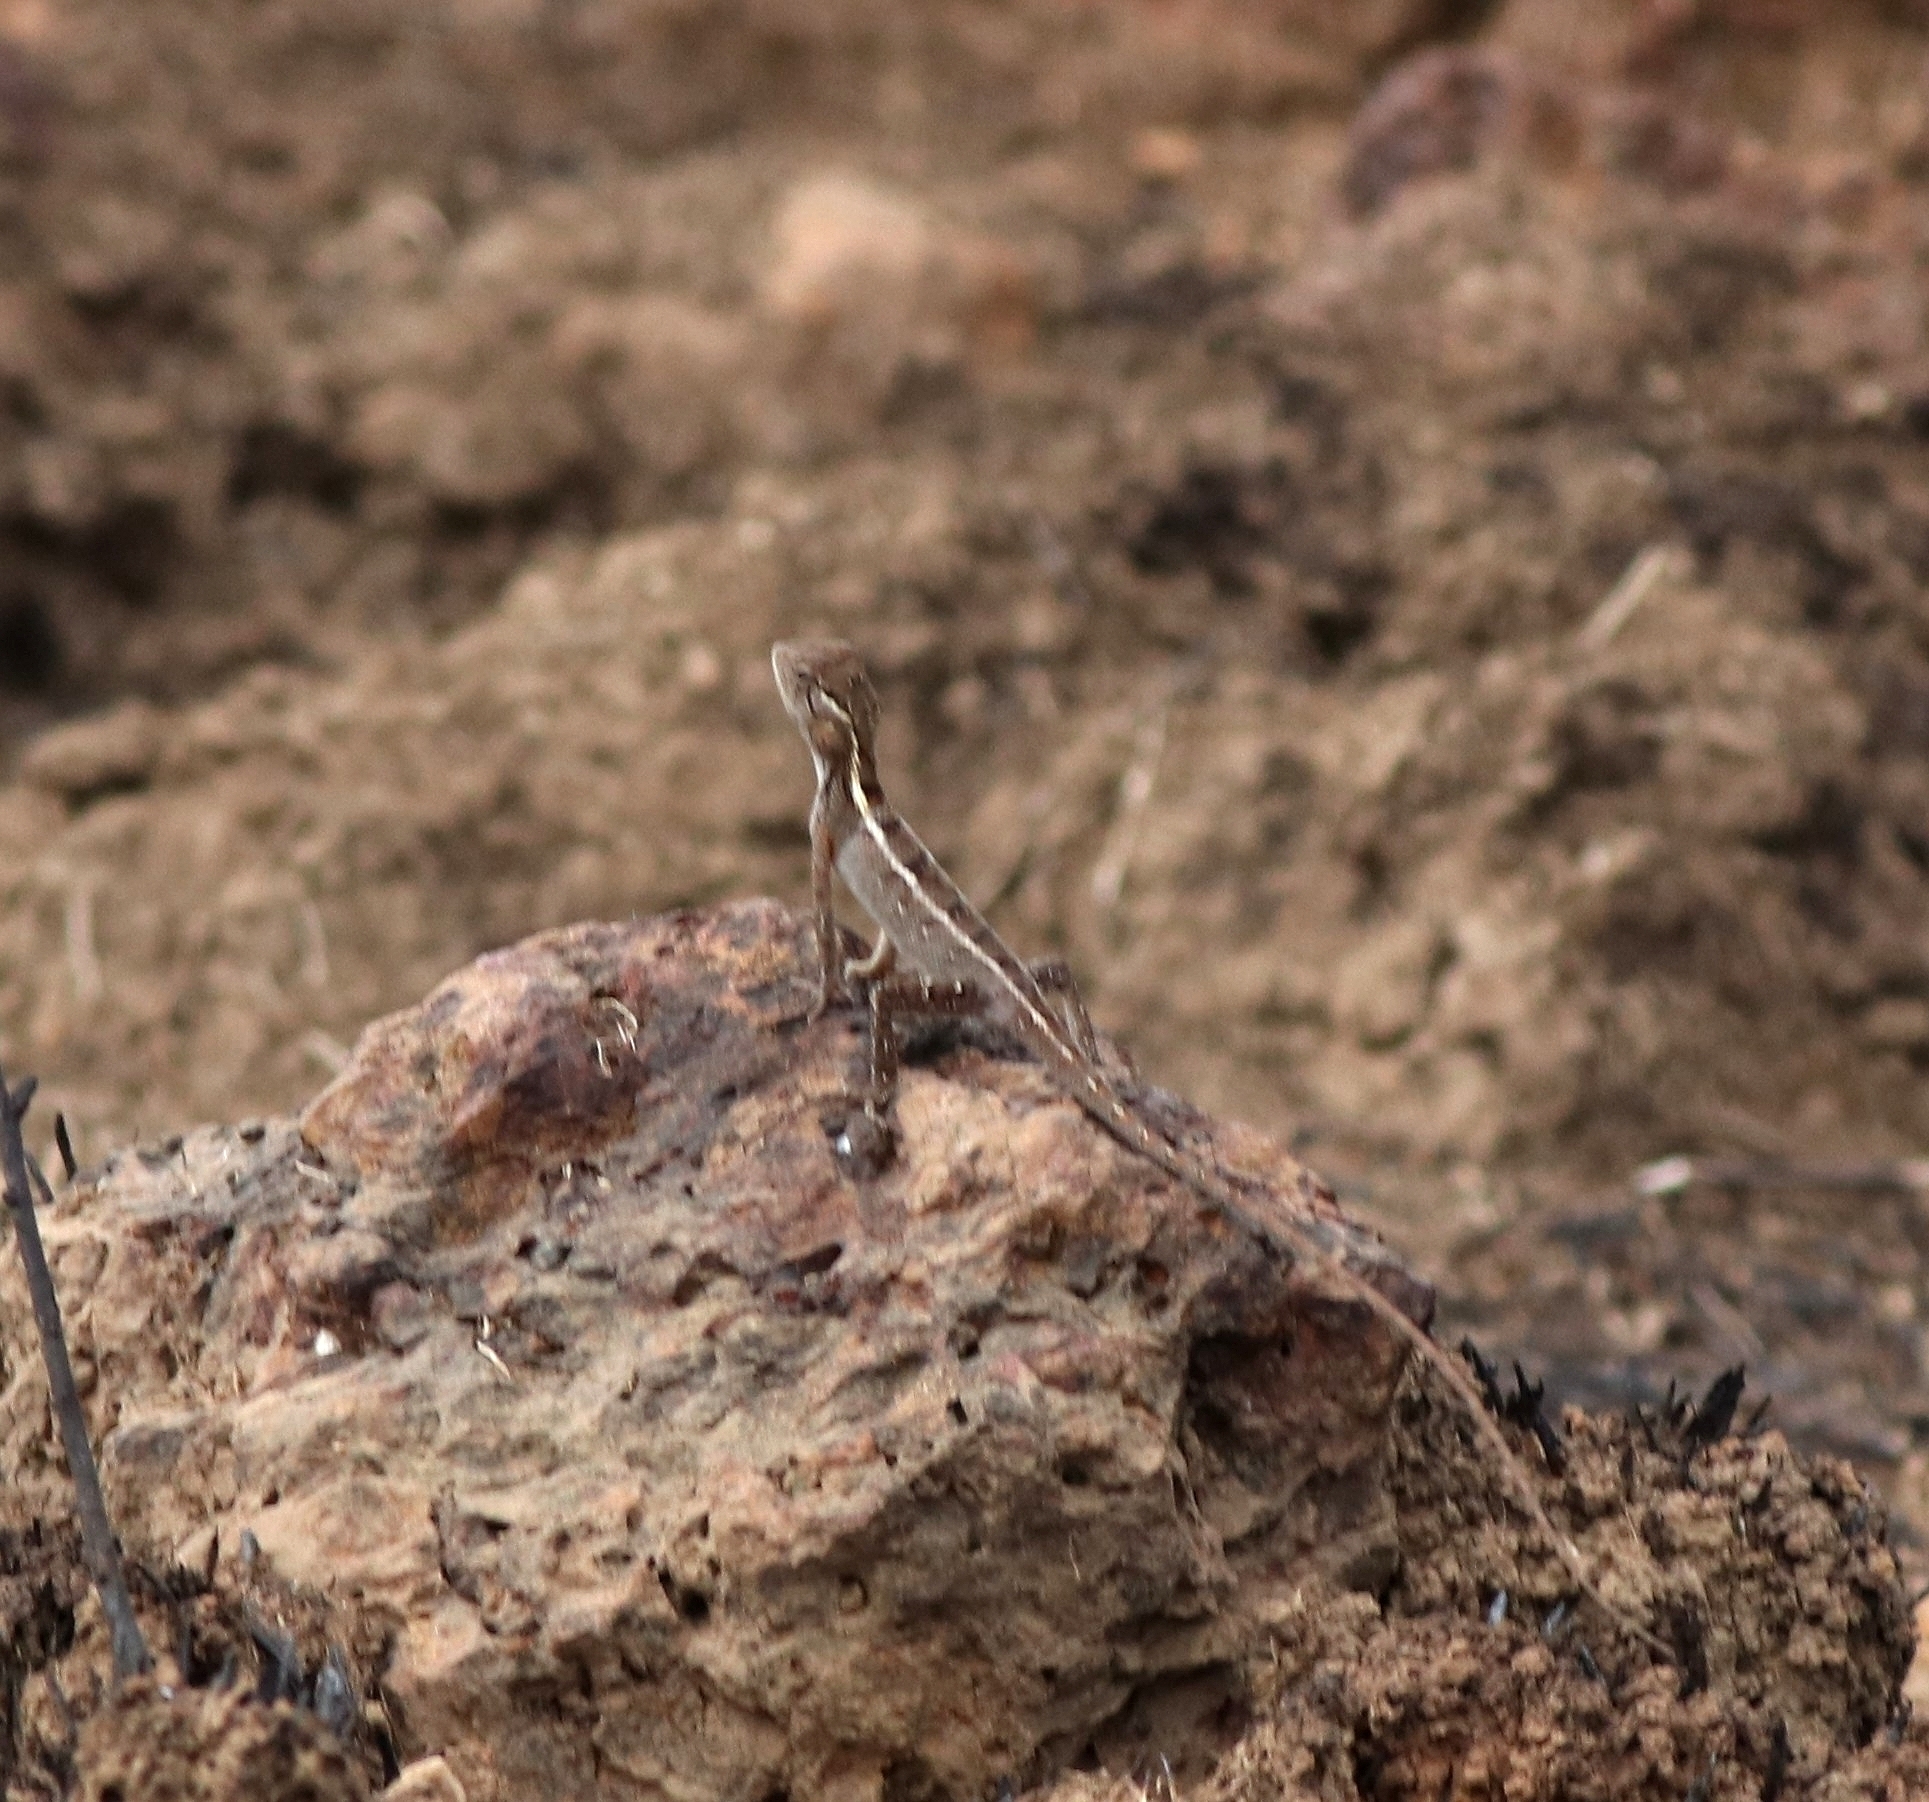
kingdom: Animalia
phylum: Chordata
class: Squamata
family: Agamidae
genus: Calotes
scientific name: Calotes versicolor
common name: Oriental garden lizard
